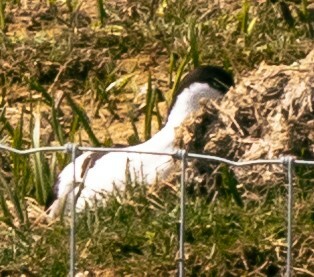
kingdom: Animalia
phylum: Chordata
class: Aves
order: Charadriiformes
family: Recurvirostridae
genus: Recurvirostra
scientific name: Recurvirostra avosetta
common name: Pied avocet
